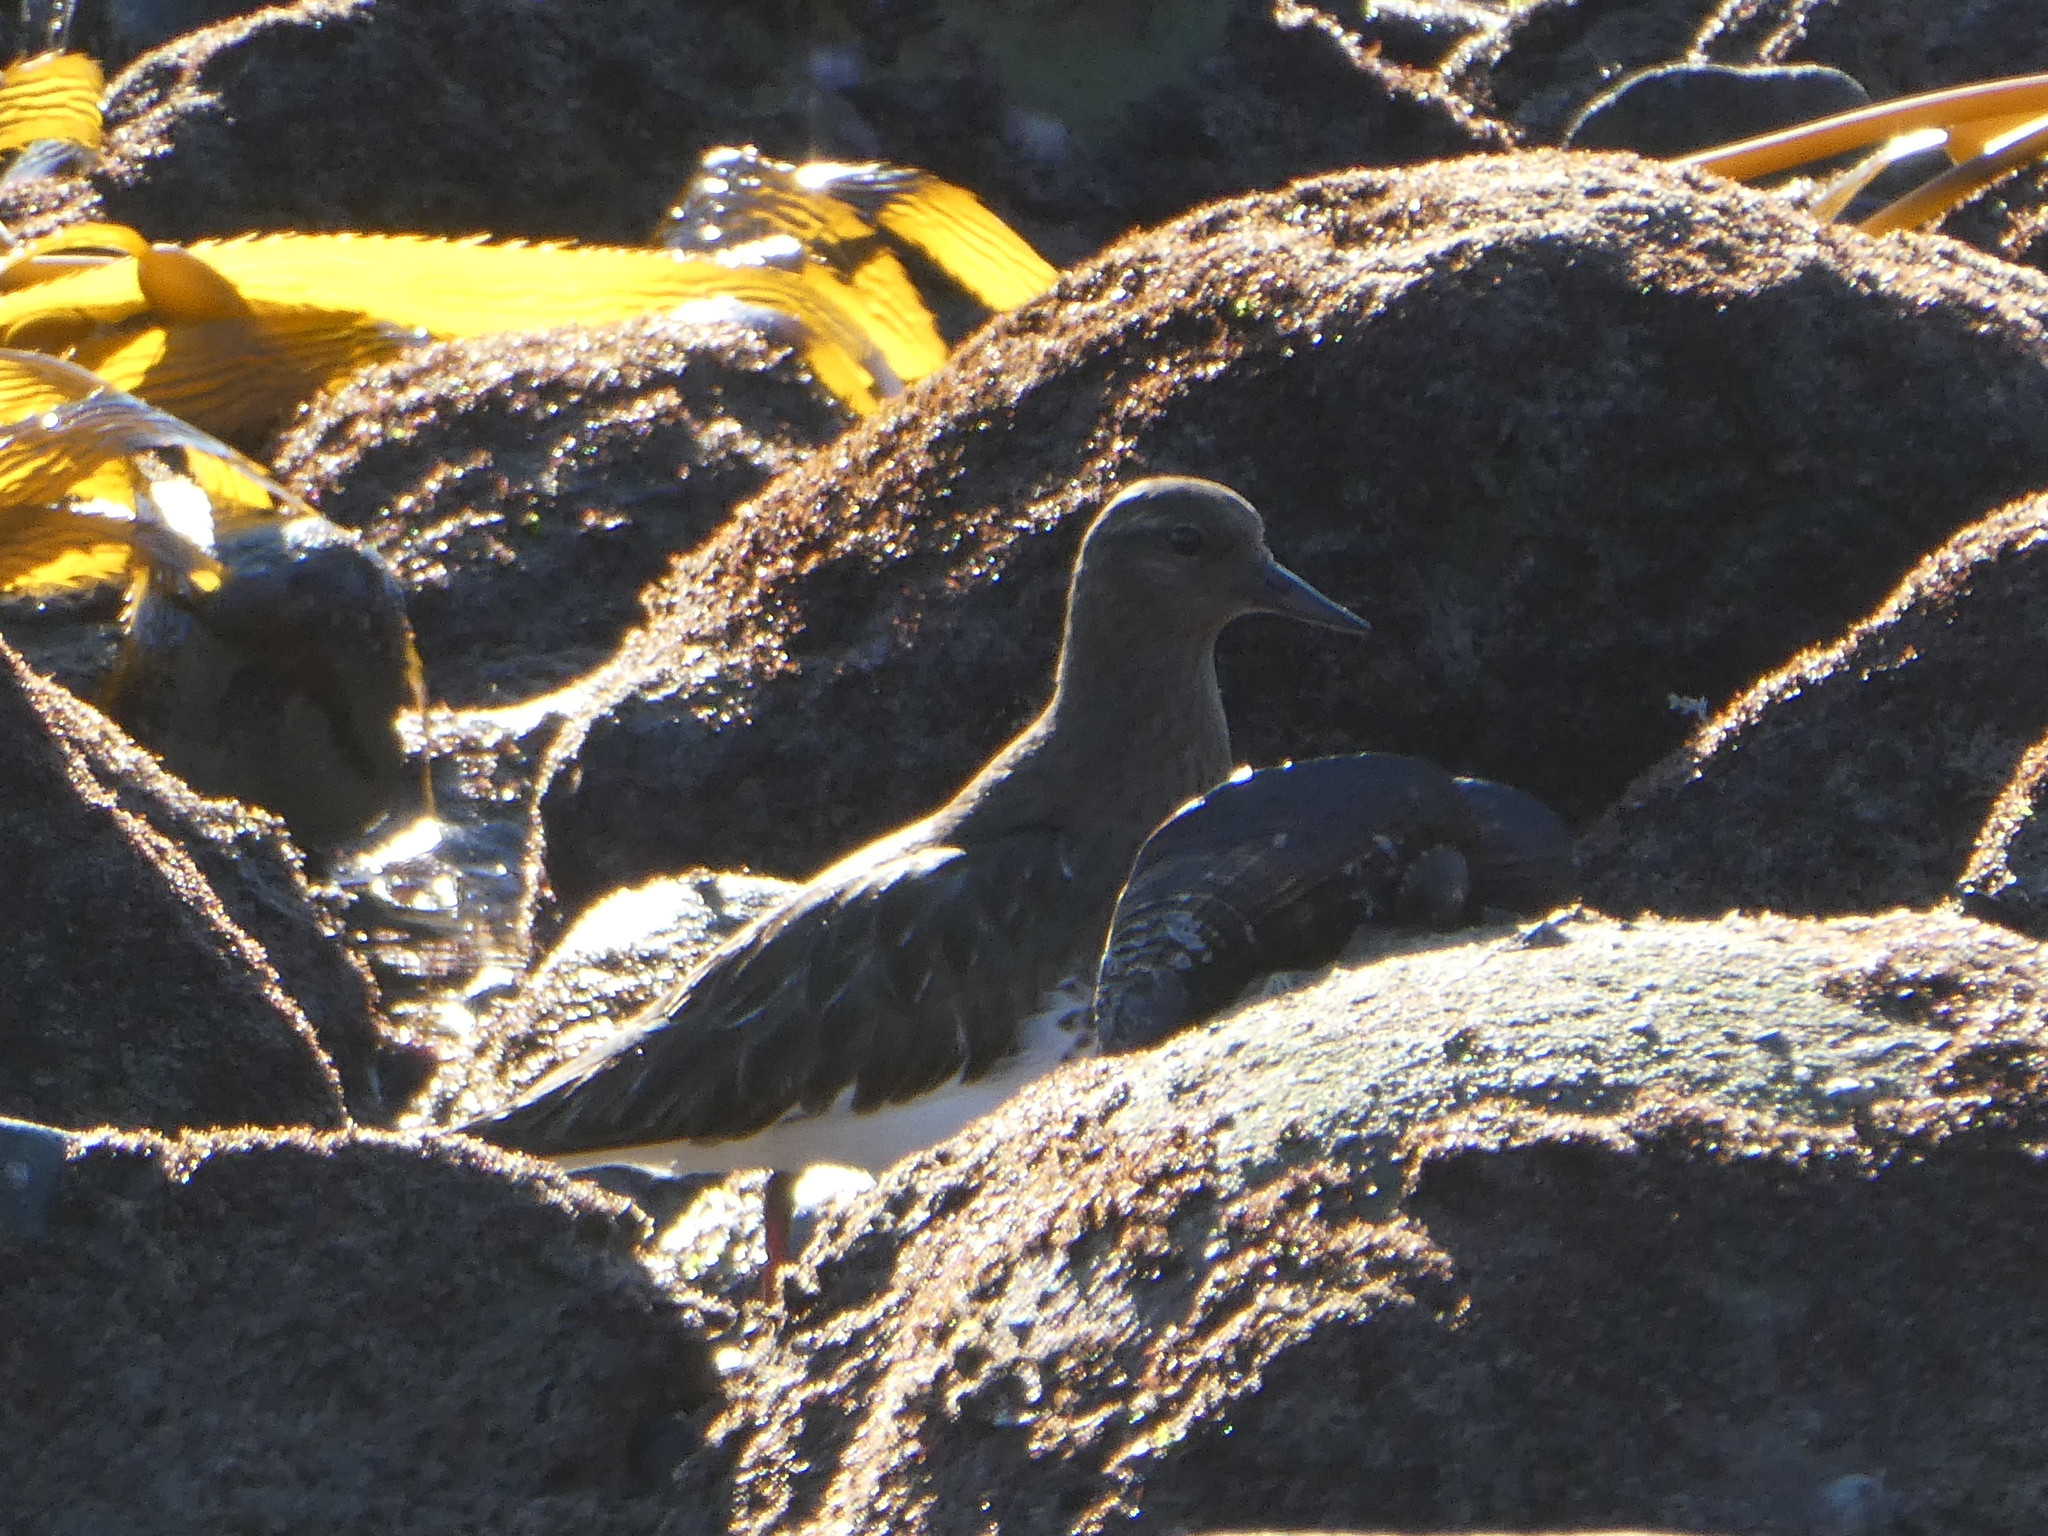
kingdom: Animalia
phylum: Chordata
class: Aves
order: Charadriiformes
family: Scolopacidae
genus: Arenaria
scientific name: Arenaria melanocephala
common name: Black turnstone
